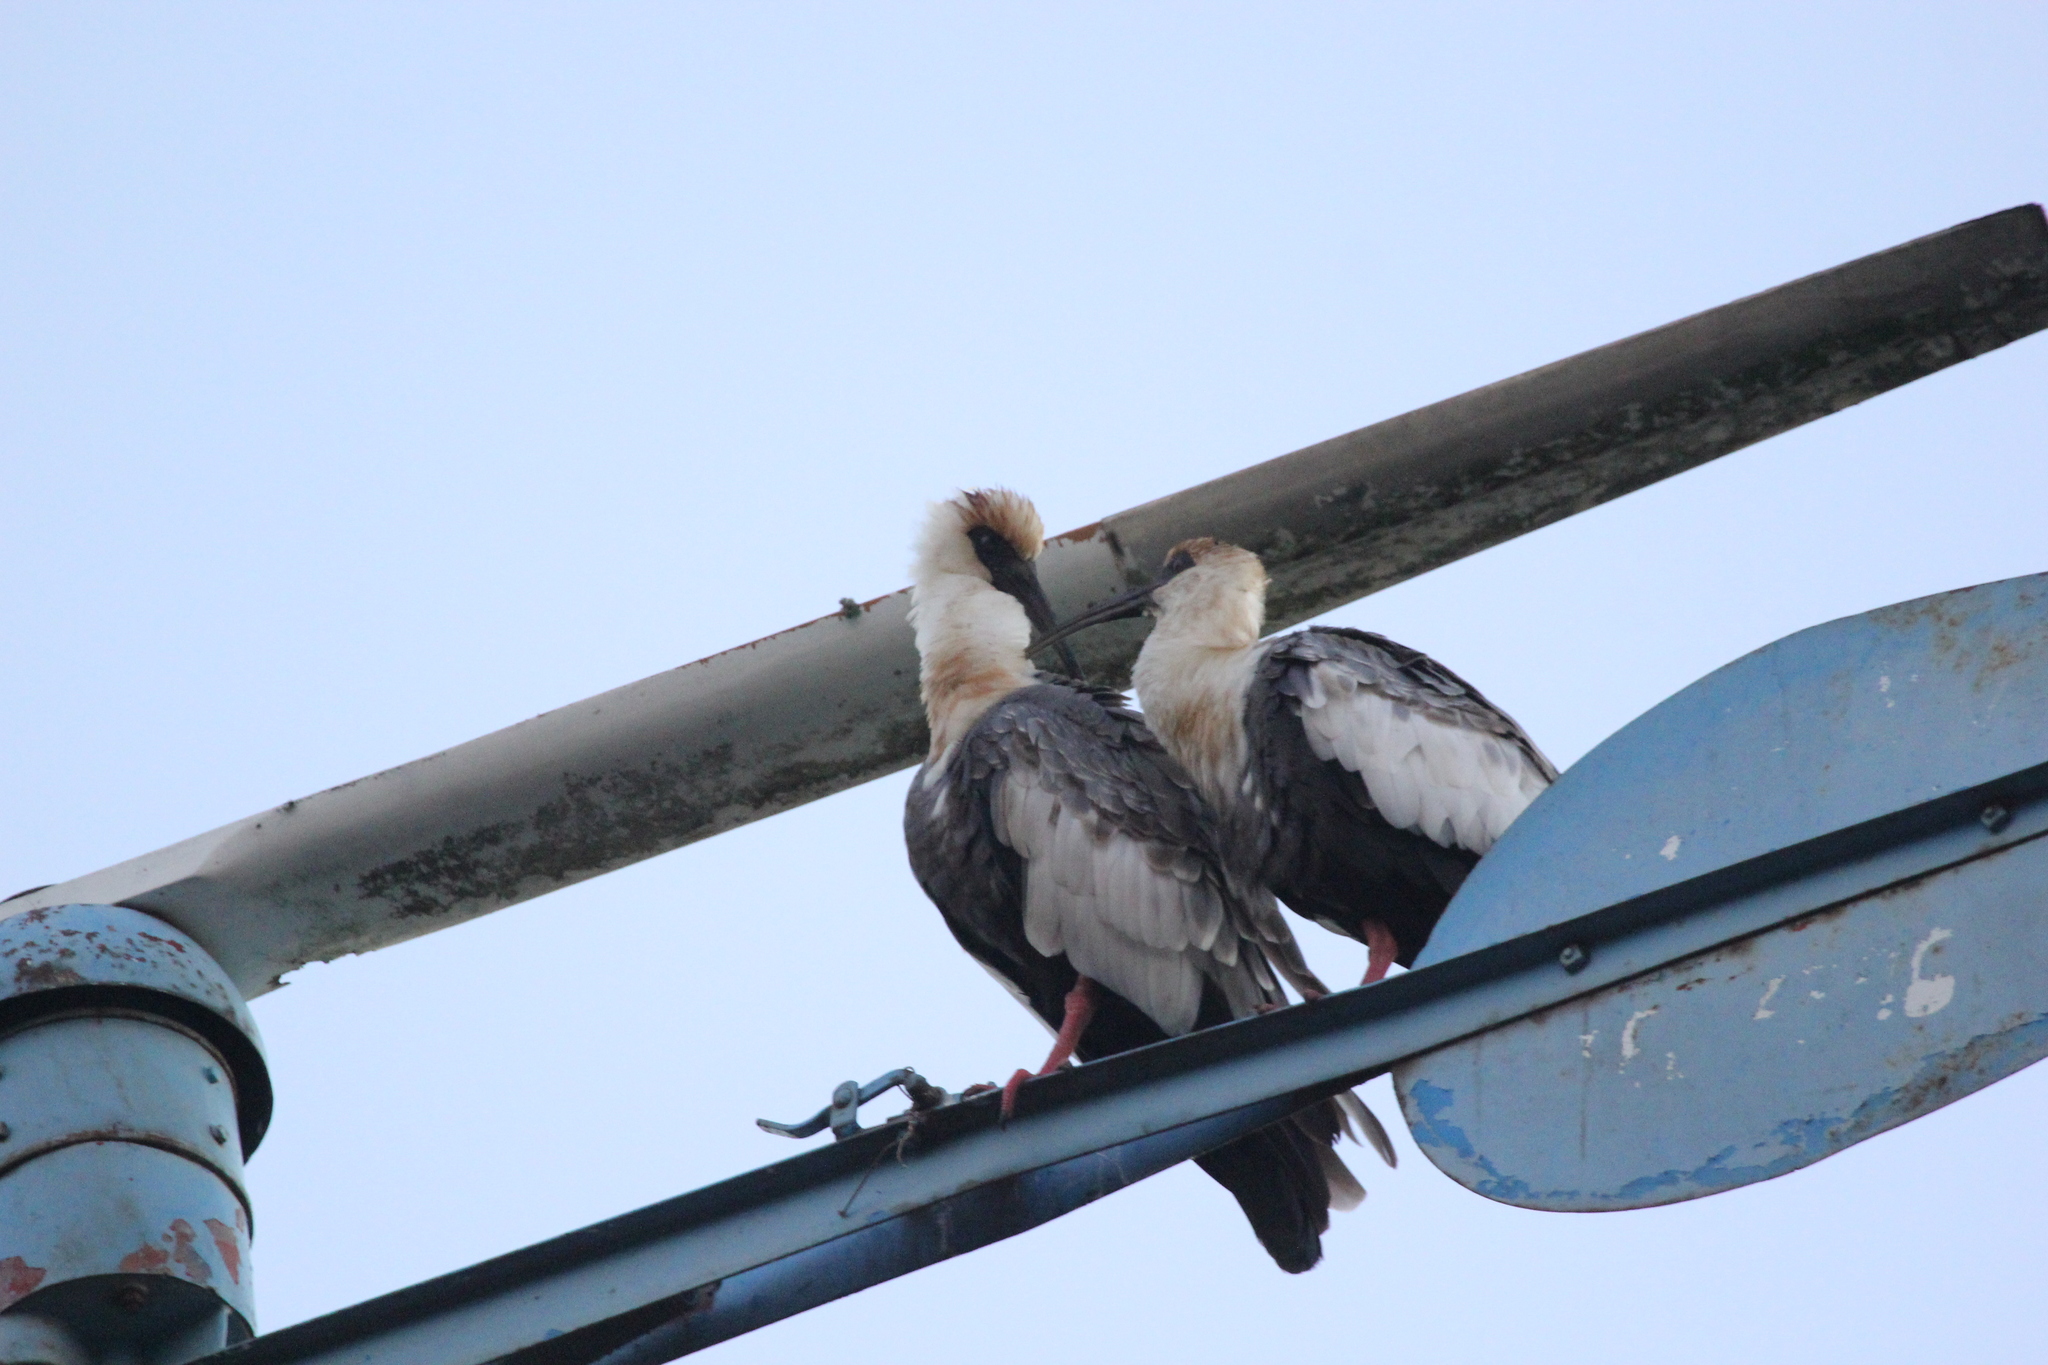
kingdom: Animalia
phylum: Chordata
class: Aves
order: Pelecaniformes
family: Threskiornithidae
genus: Theristicus
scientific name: Theristicus caudatus
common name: Buff-necked ibis
